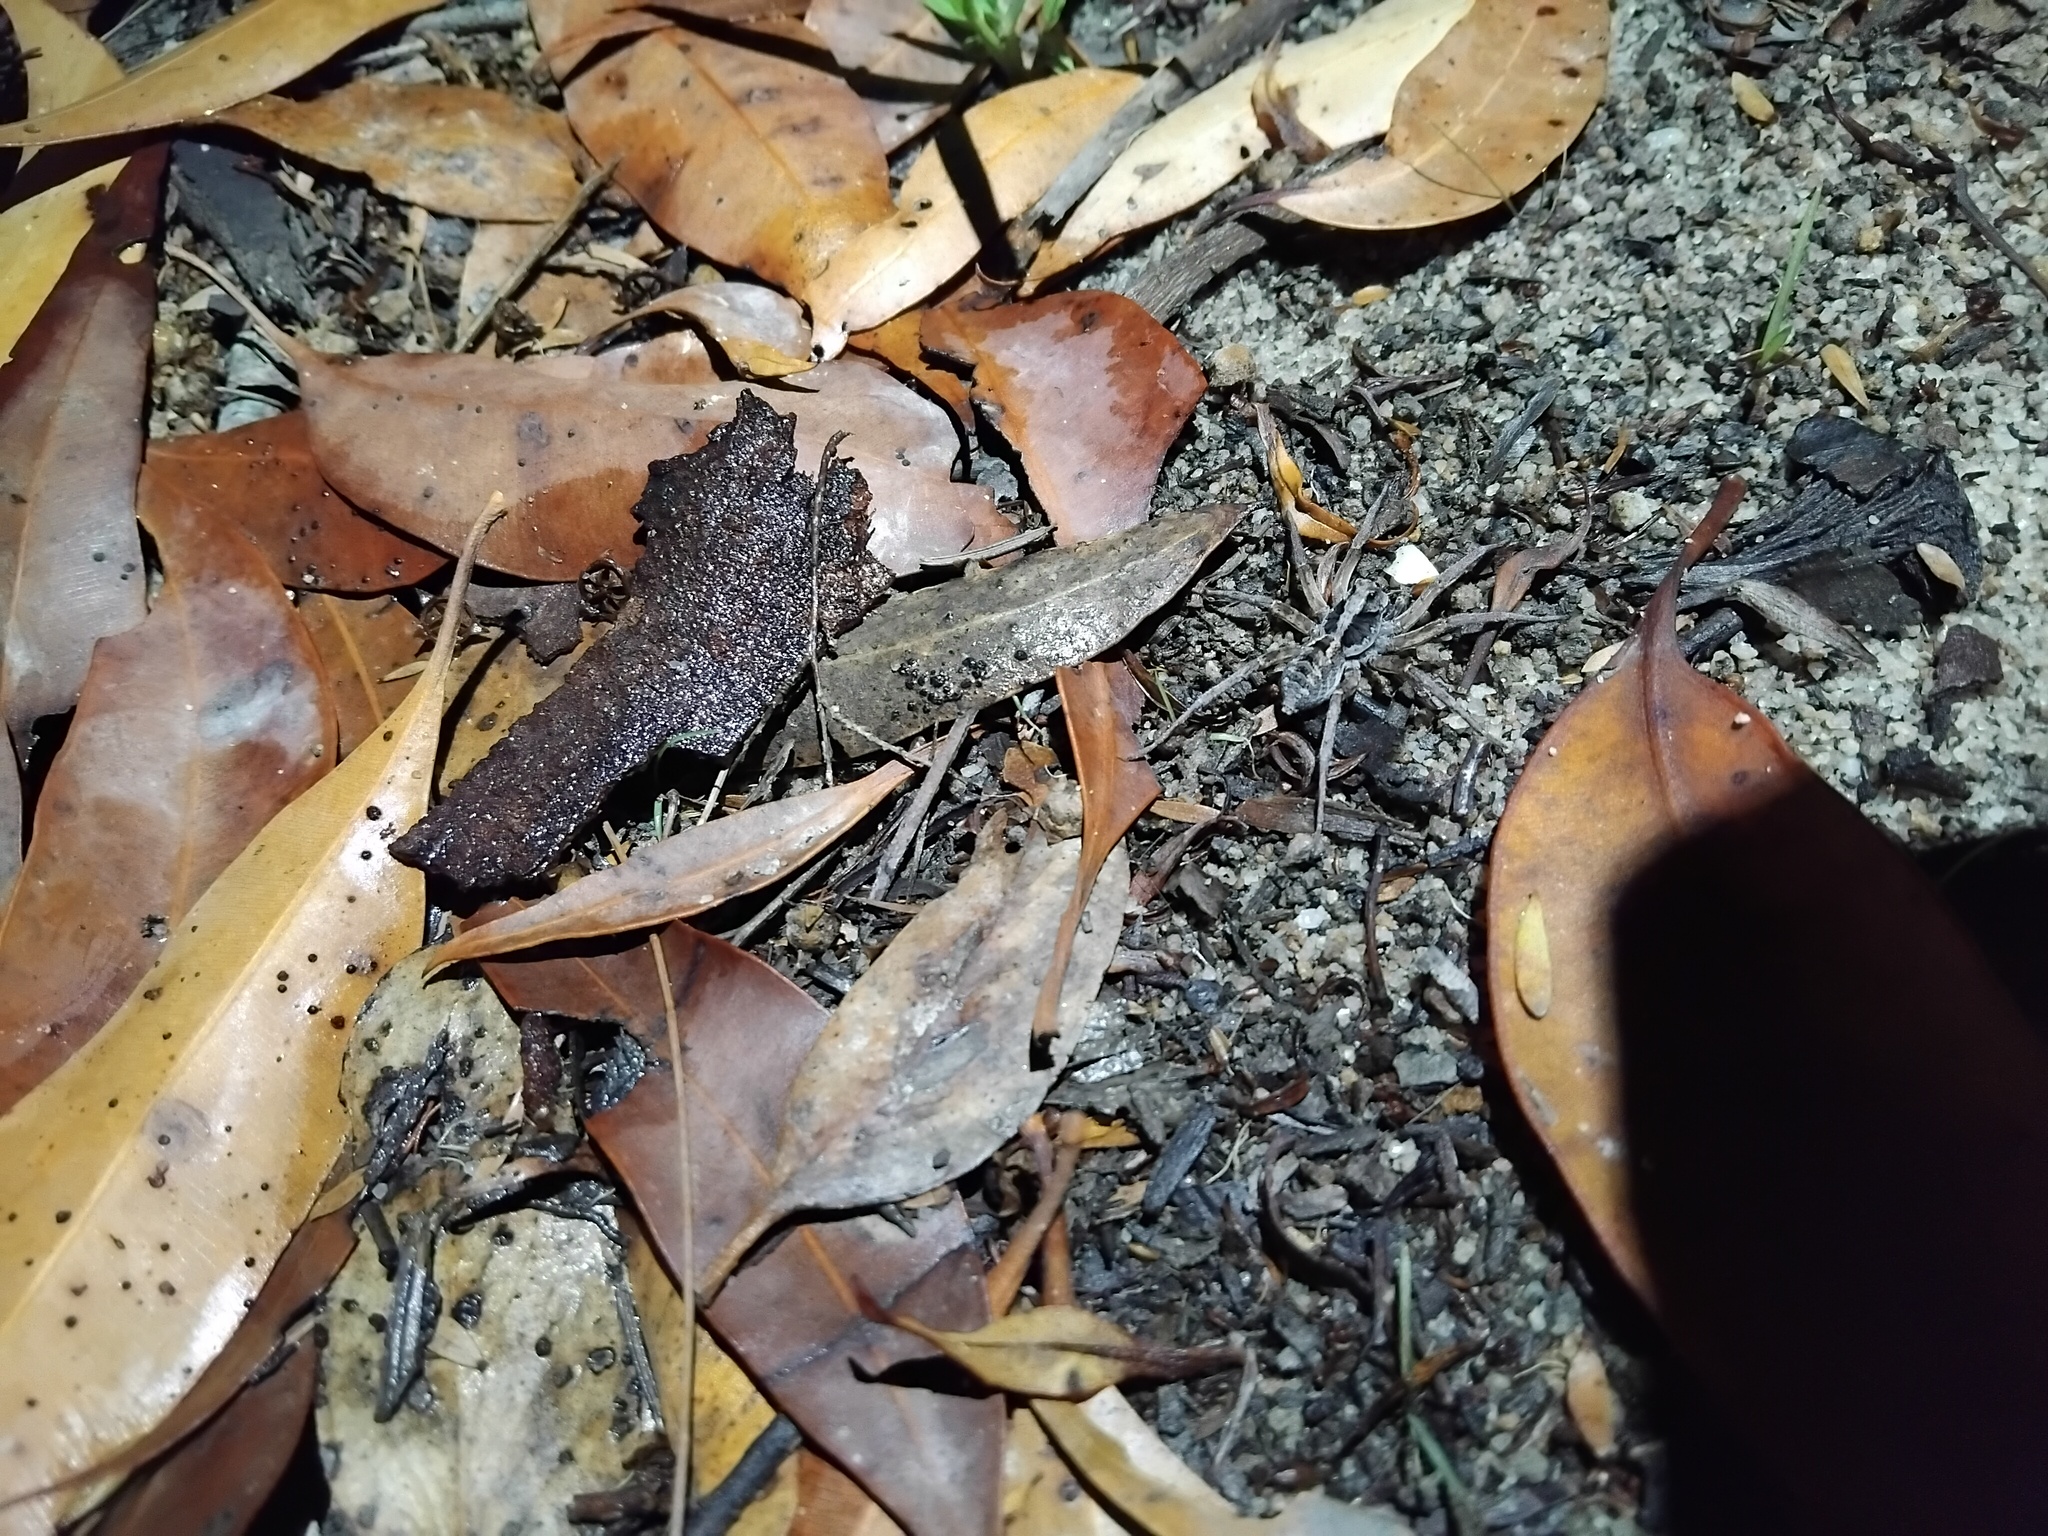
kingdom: Animalia
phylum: Arthropoda
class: Arachnida
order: Araneae
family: Lycosidae
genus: Venator
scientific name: Venator spenceri
